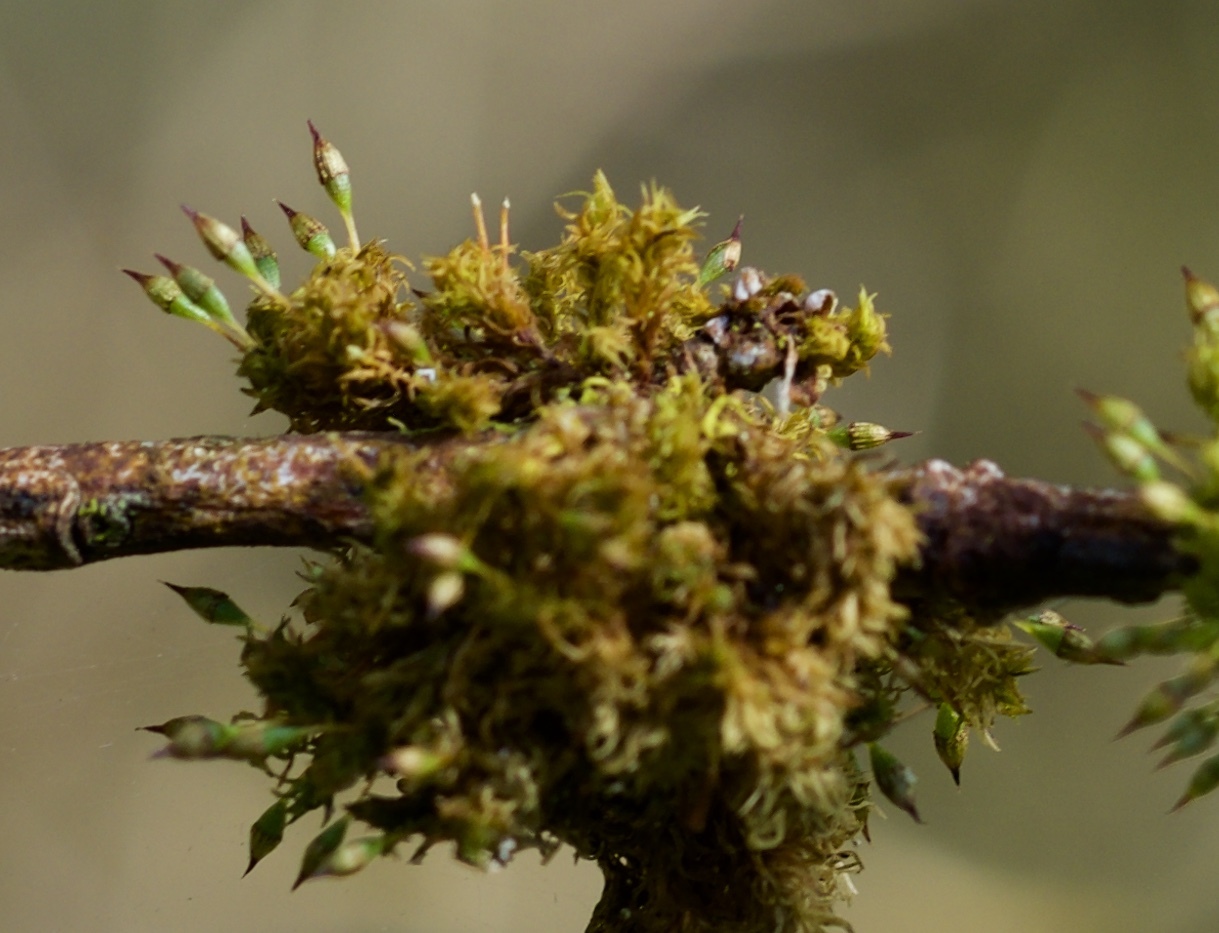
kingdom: Plantae
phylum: Bryophyta
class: Bryopsida
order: Orthotrichales
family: Orthotrichaceae
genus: Orthotrichum
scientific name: Orthotrichum pulchellum
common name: Elegant bristle-moss
